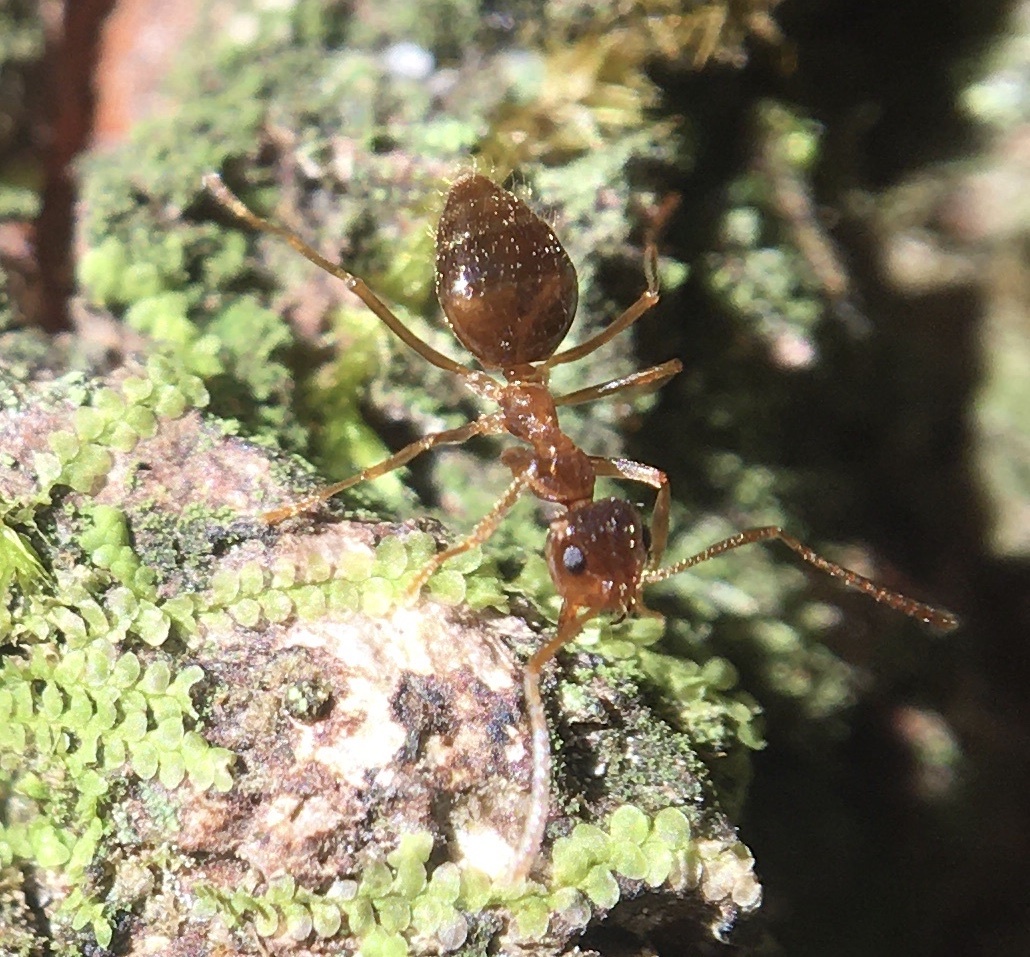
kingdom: Animalia
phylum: Arthropoda
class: Insecta
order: Hymenoptera
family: Formicidae
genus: Prenolepis
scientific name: Prenolepis imparis
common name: Small honey ant
